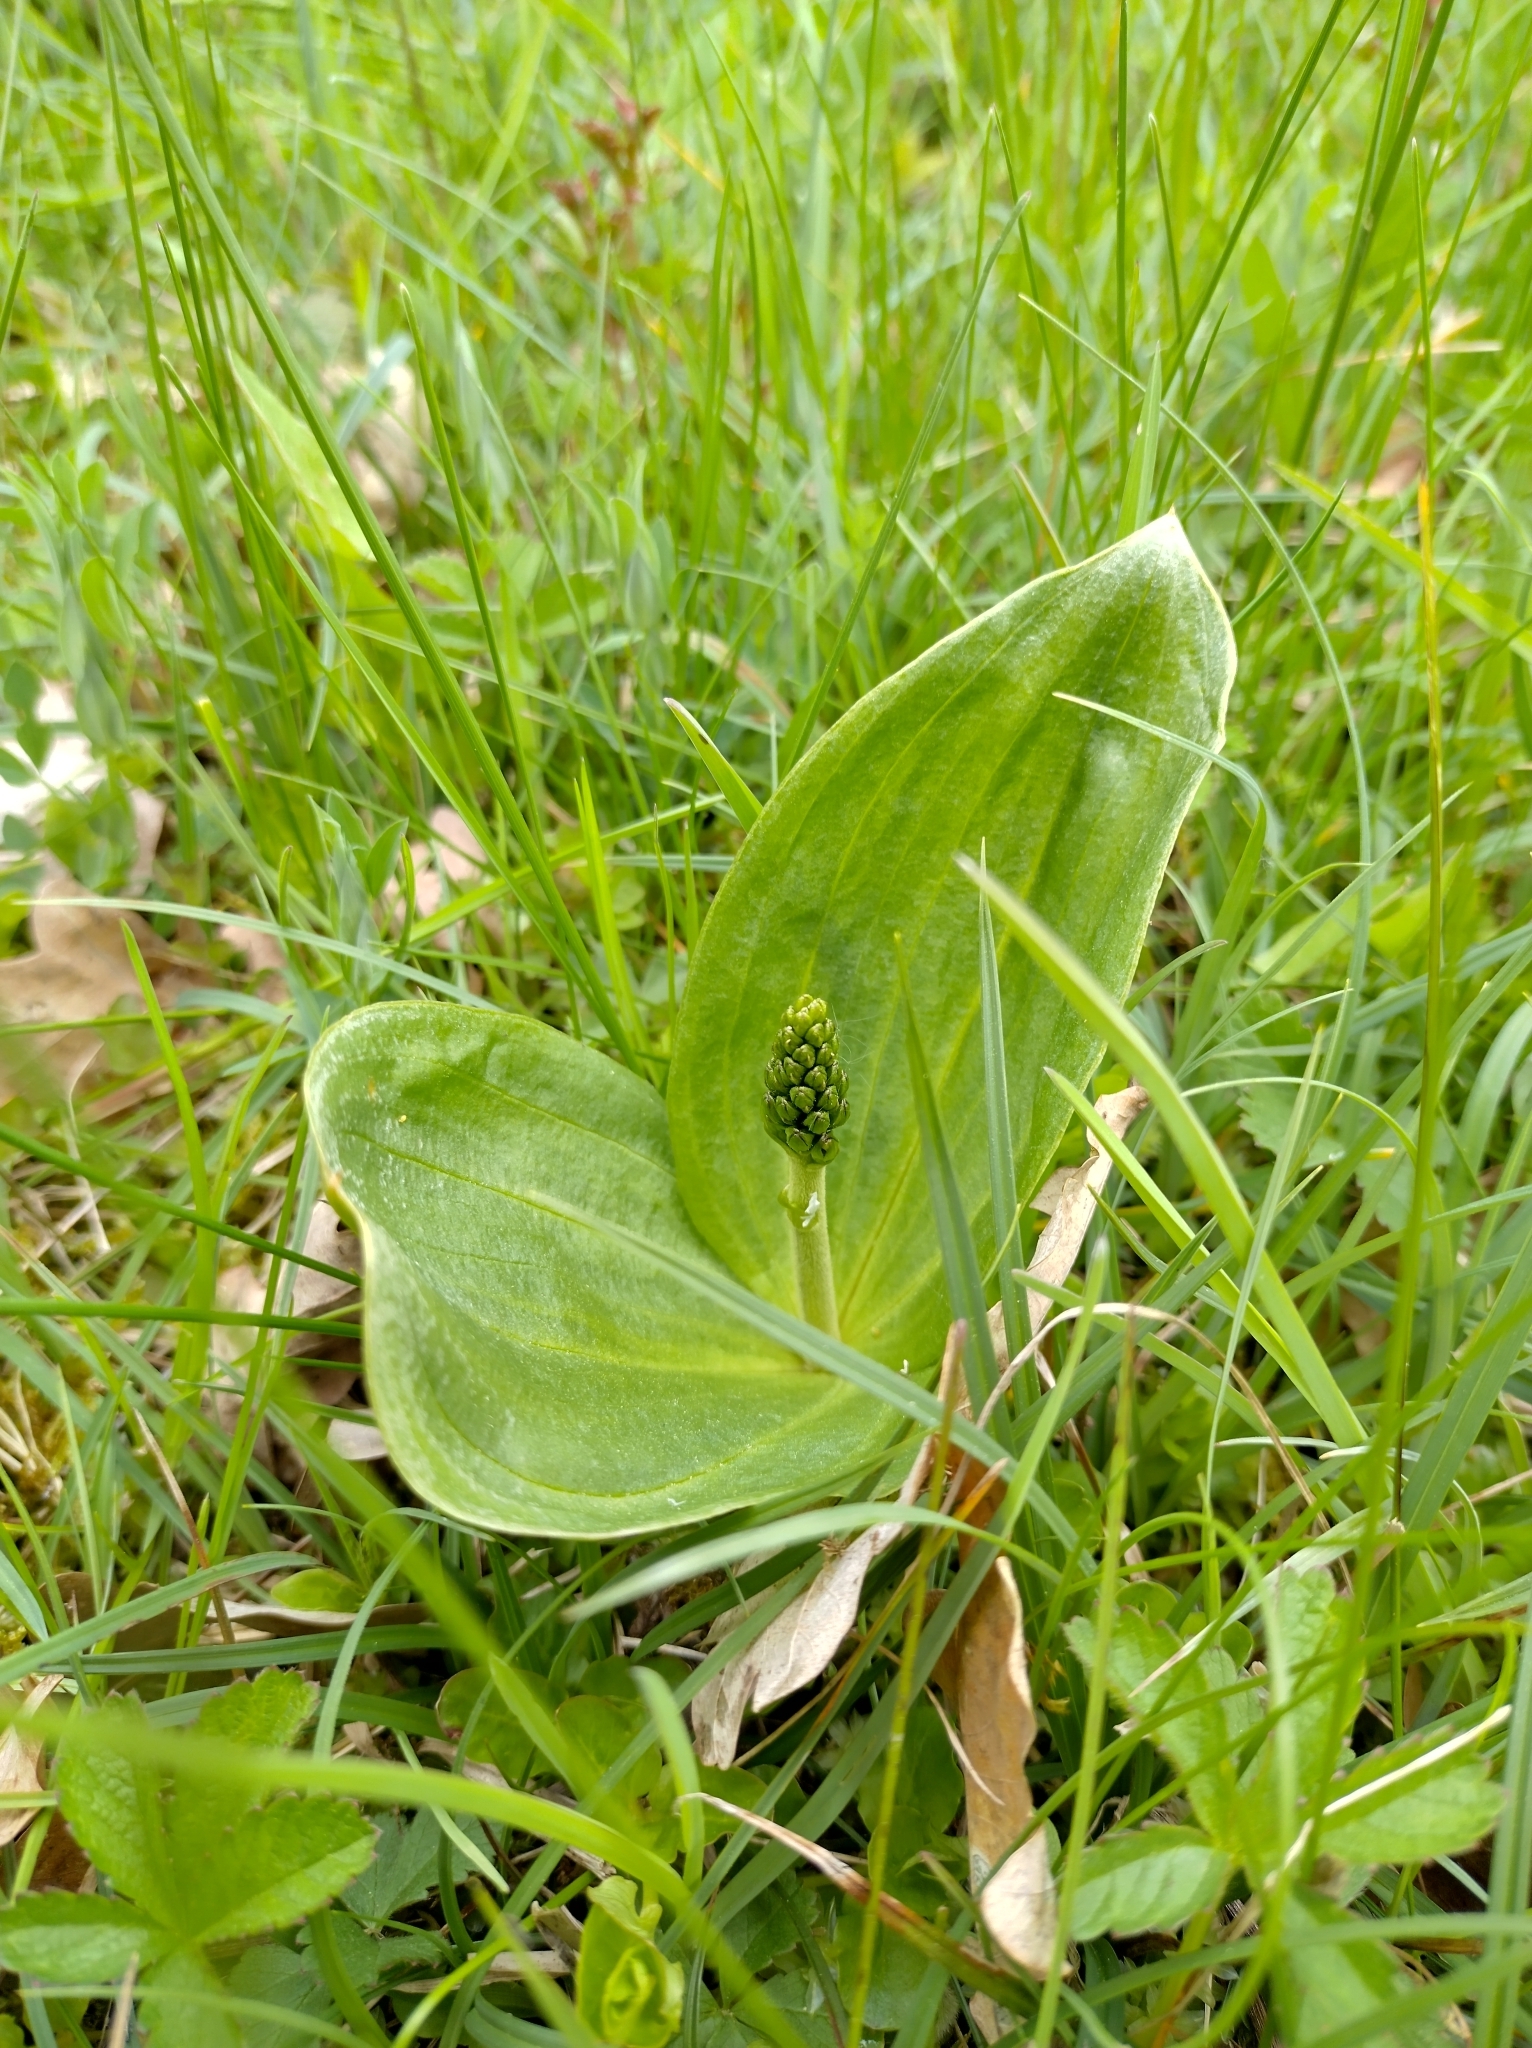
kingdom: Plantae
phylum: Tracheophyta
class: Liliopsida
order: Asparagales
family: Orchidaceae
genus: Neottia
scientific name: Neottia ovata
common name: Common twayblade
